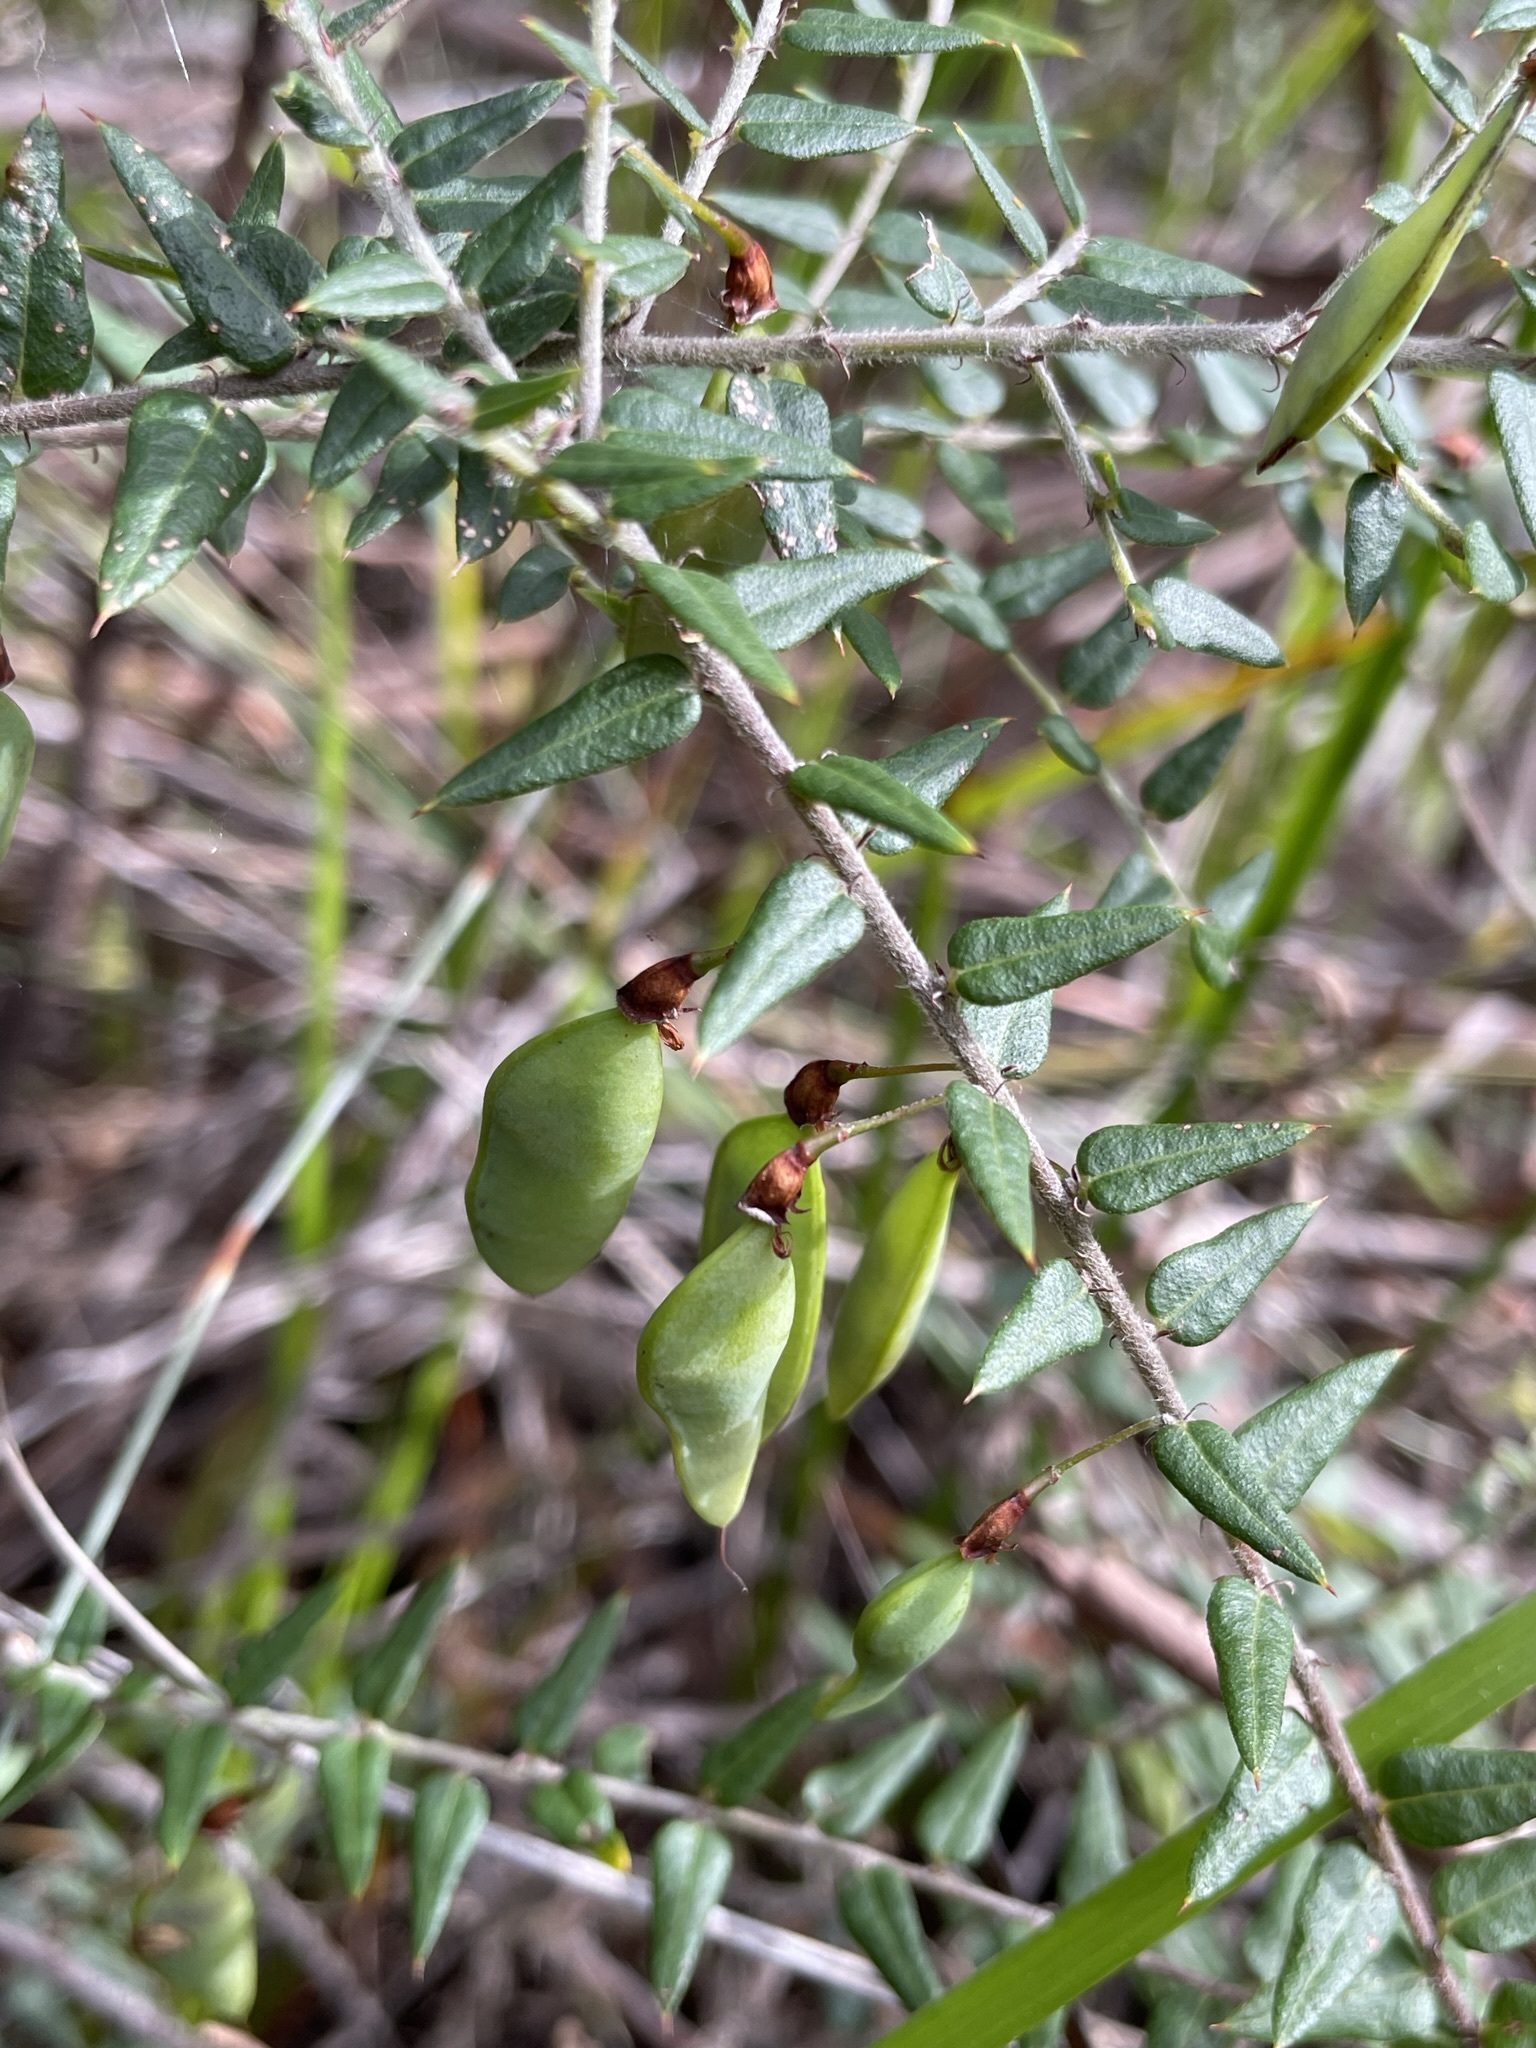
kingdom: Plantae
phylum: Tracheophyta
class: Magnoliopsida
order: Fabales
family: Fabaceae
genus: Bossiaea
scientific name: Bossiaea cinerea
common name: Showy bossiaea
